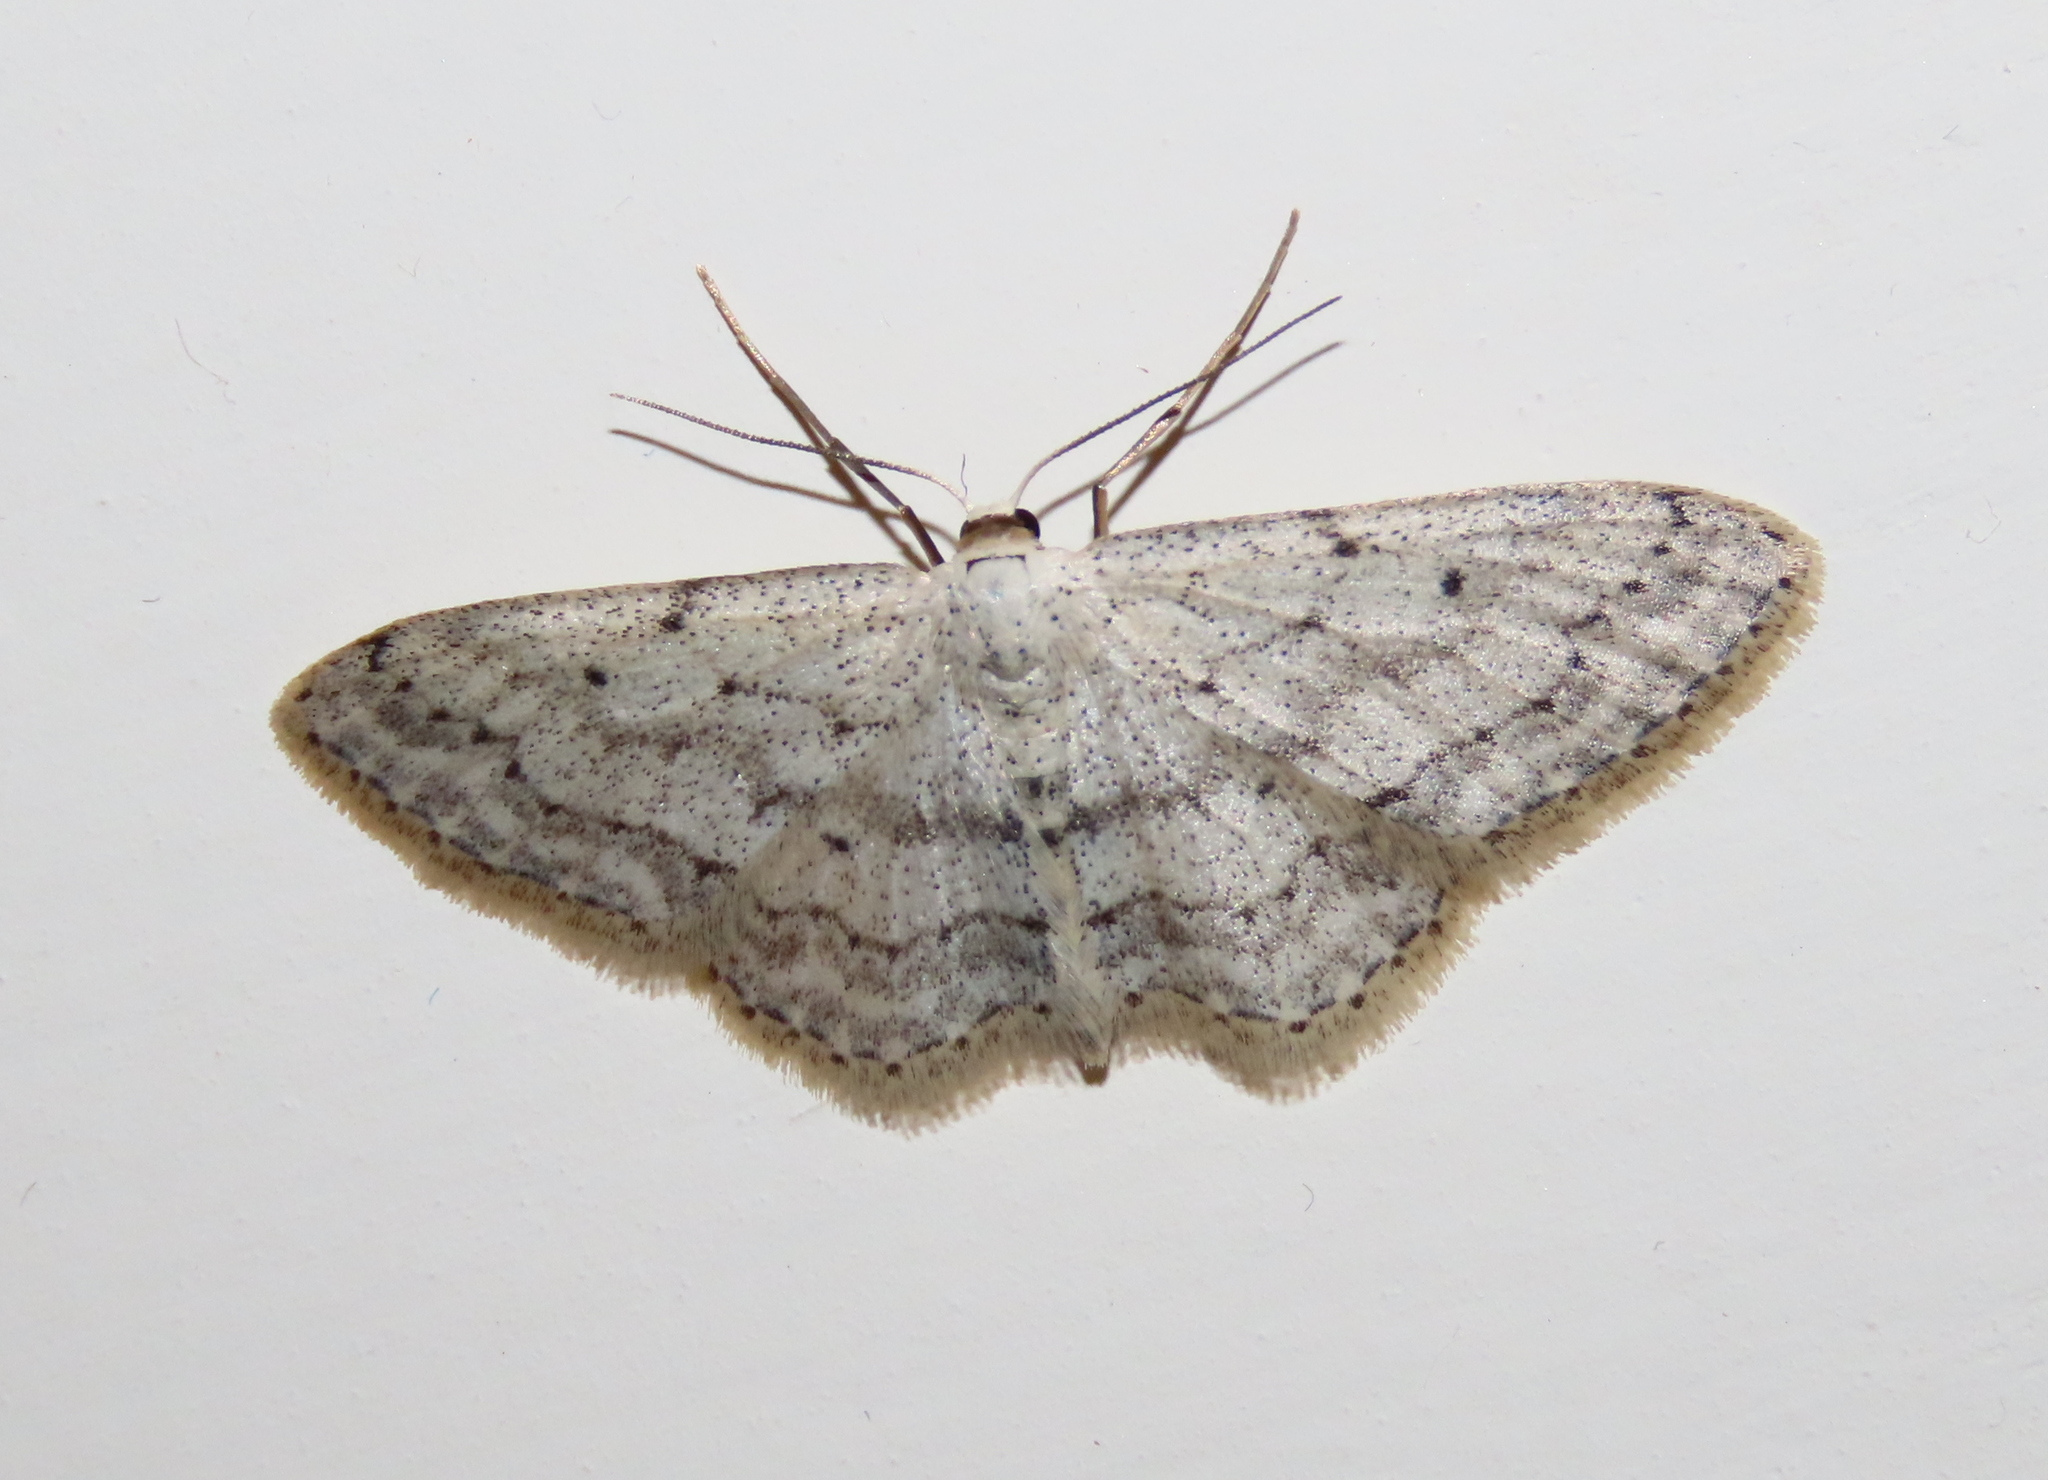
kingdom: Animalia
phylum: Arthropoda
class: Insecta
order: Lepidoptera
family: Geometridae
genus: Idaea
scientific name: Idaea seriata
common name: Small dusty wave
